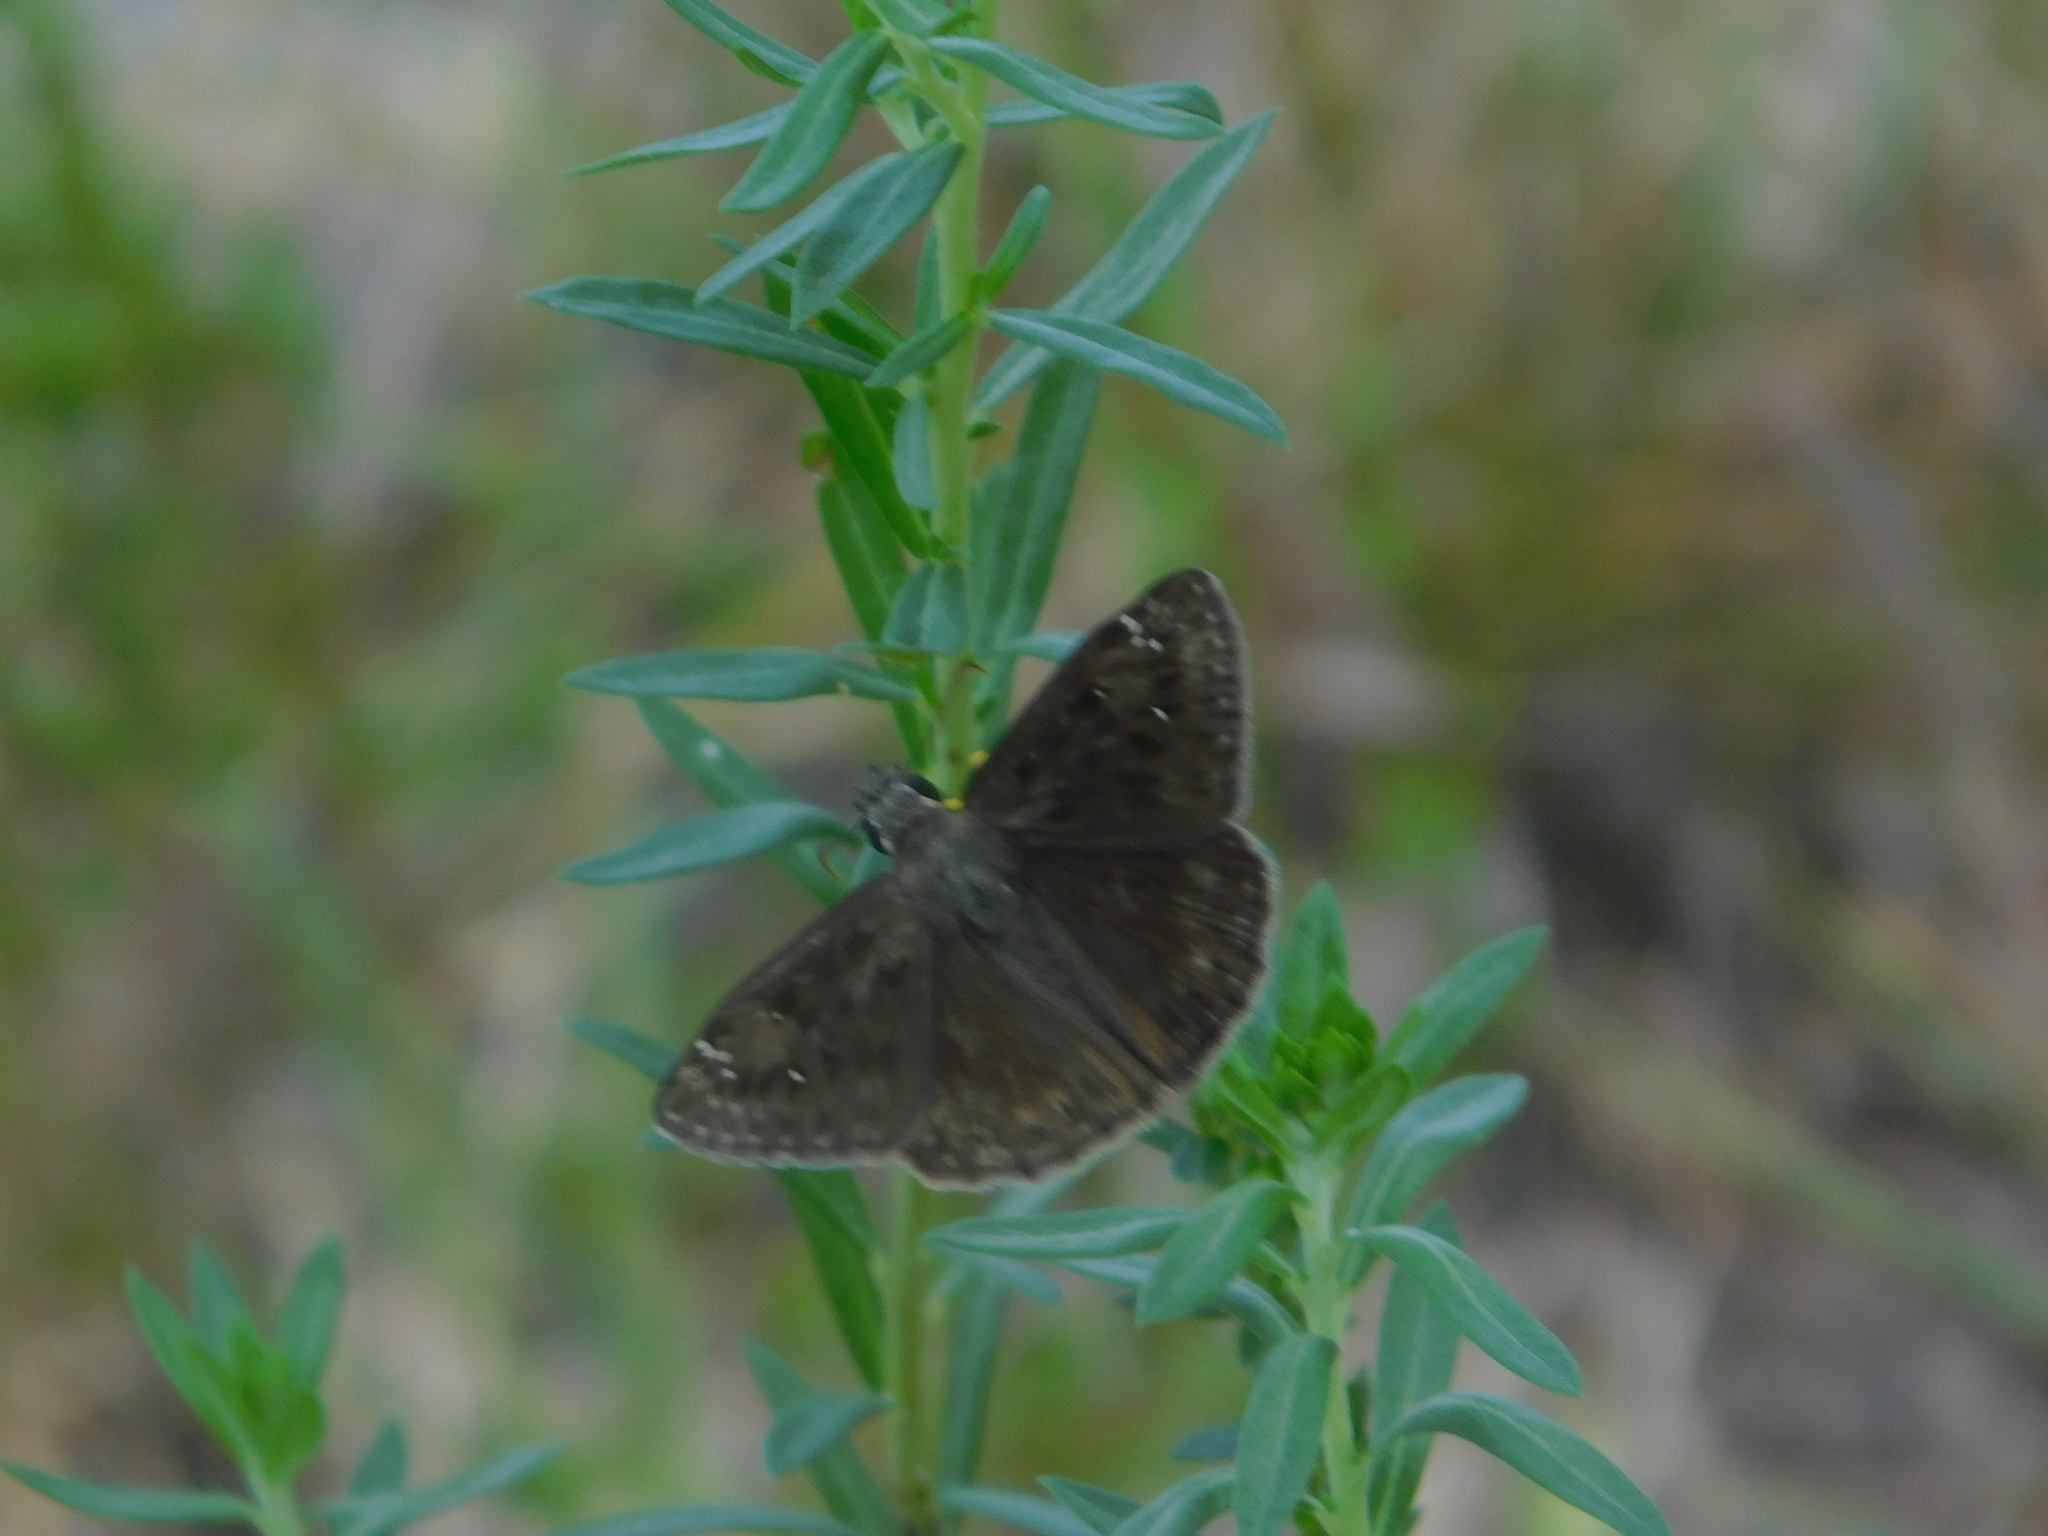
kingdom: Animalia
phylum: Arthropoda
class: Insecta
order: Lepidoptera
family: Hesperiidae
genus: Erynnis
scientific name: Erynnis horatius
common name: Horace's duskywing
